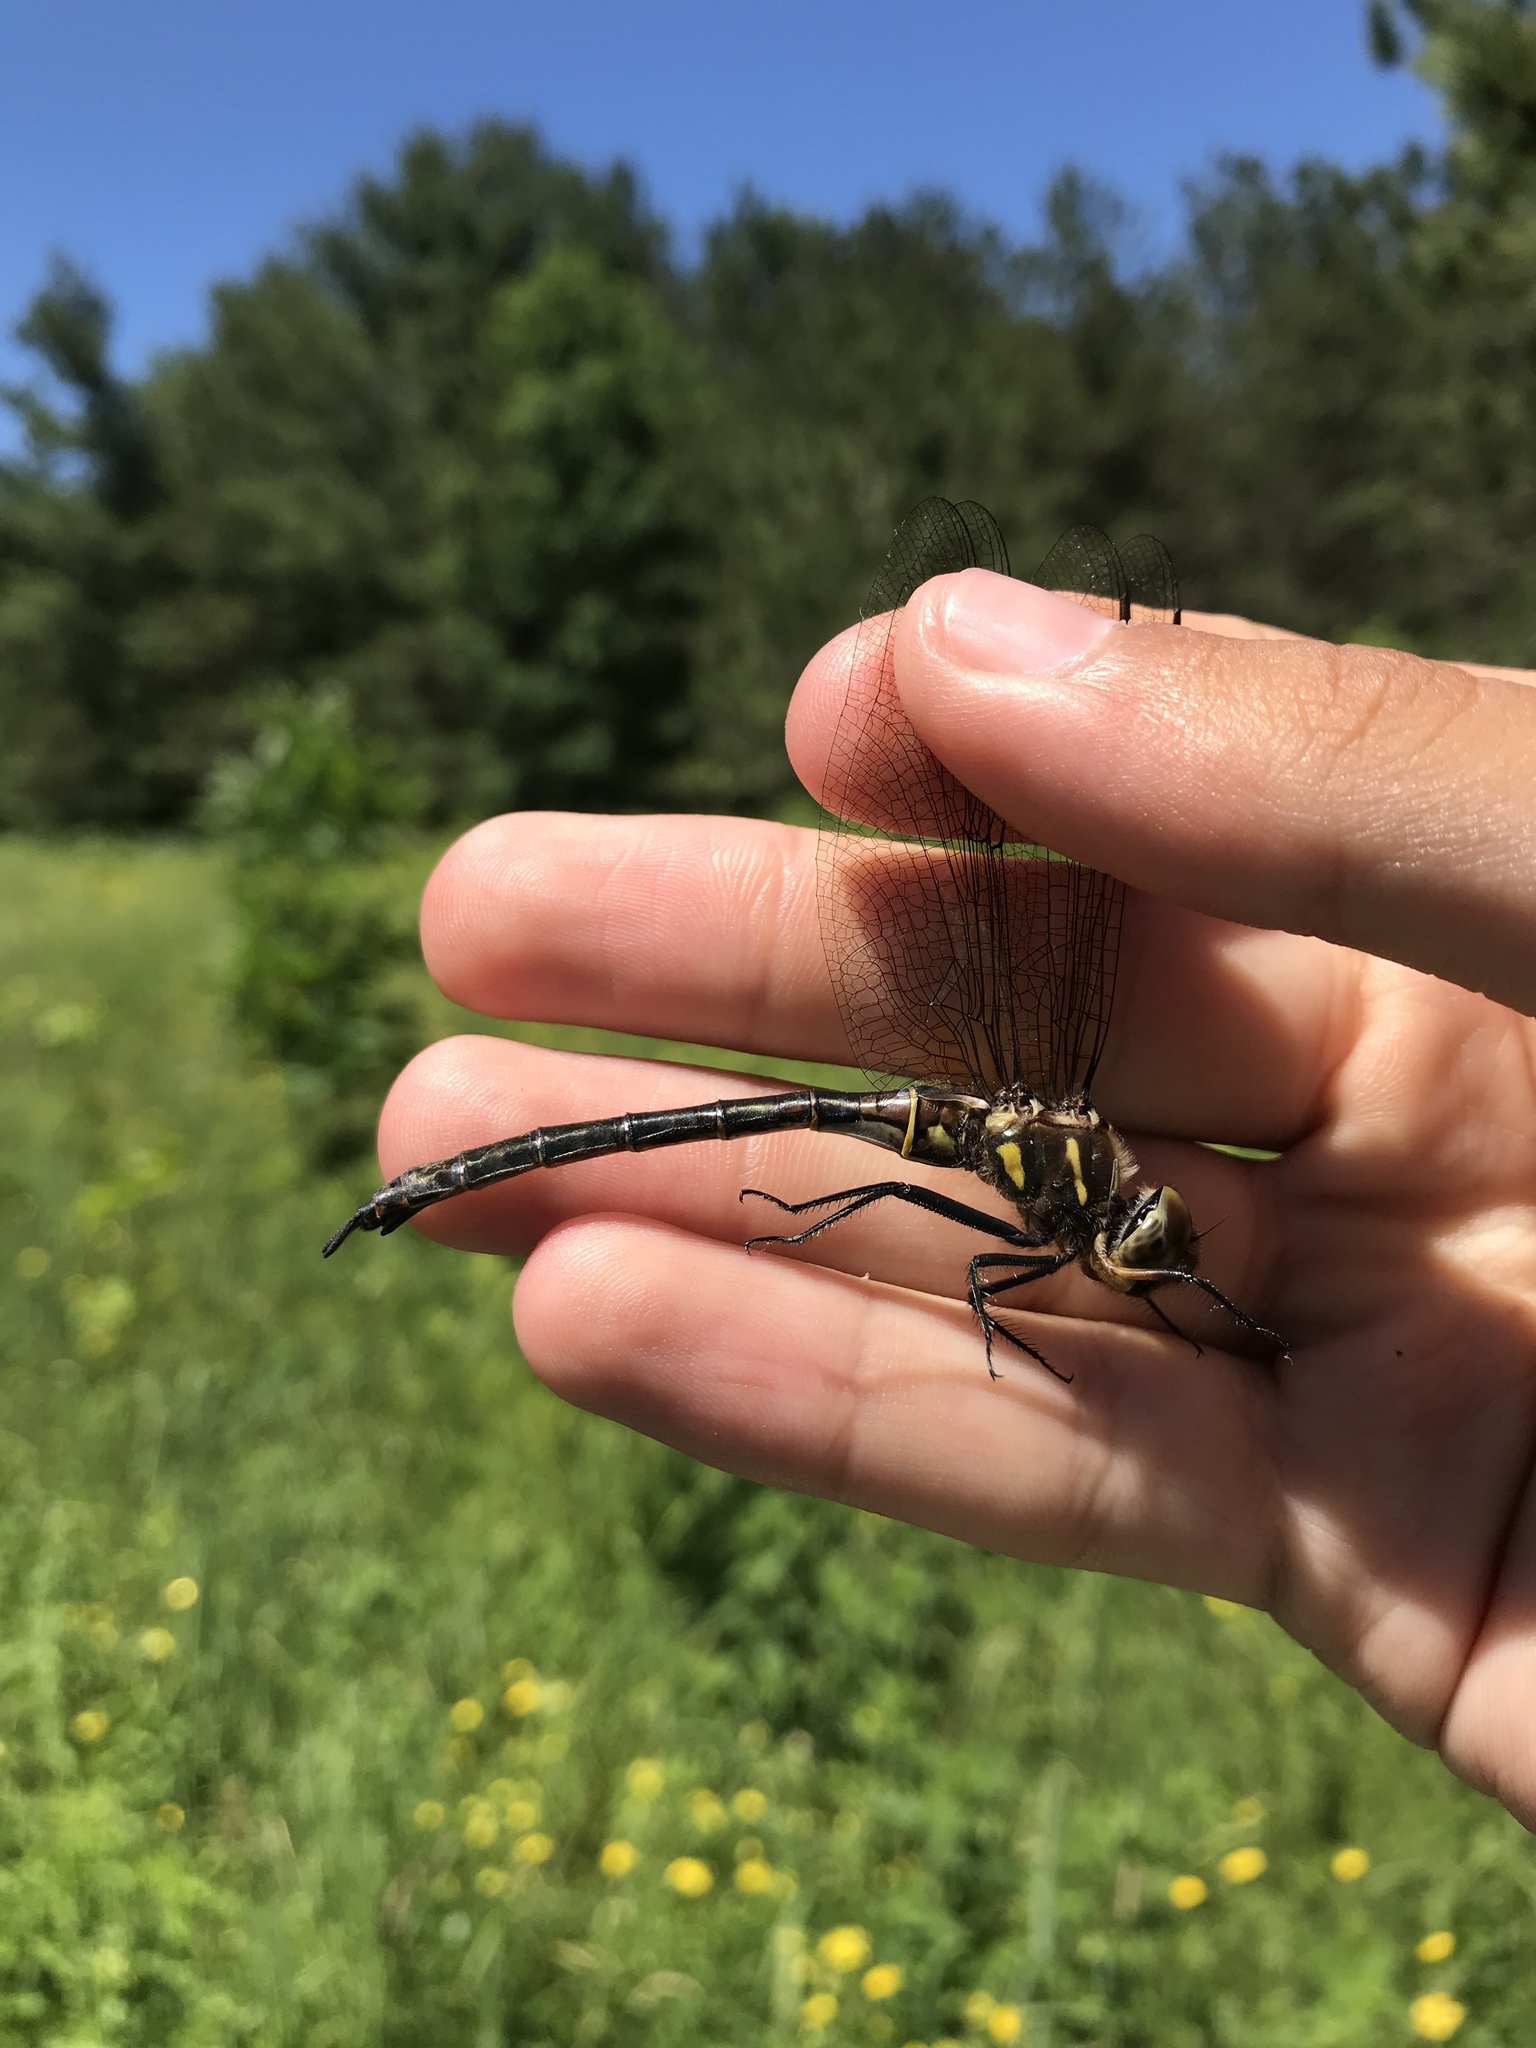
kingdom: Animalia
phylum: Arthropoda
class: Insecta
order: Odonata
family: Corduliidae
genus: Somatochlora
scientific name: Somatochlora hineana
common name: Hine's emerald
